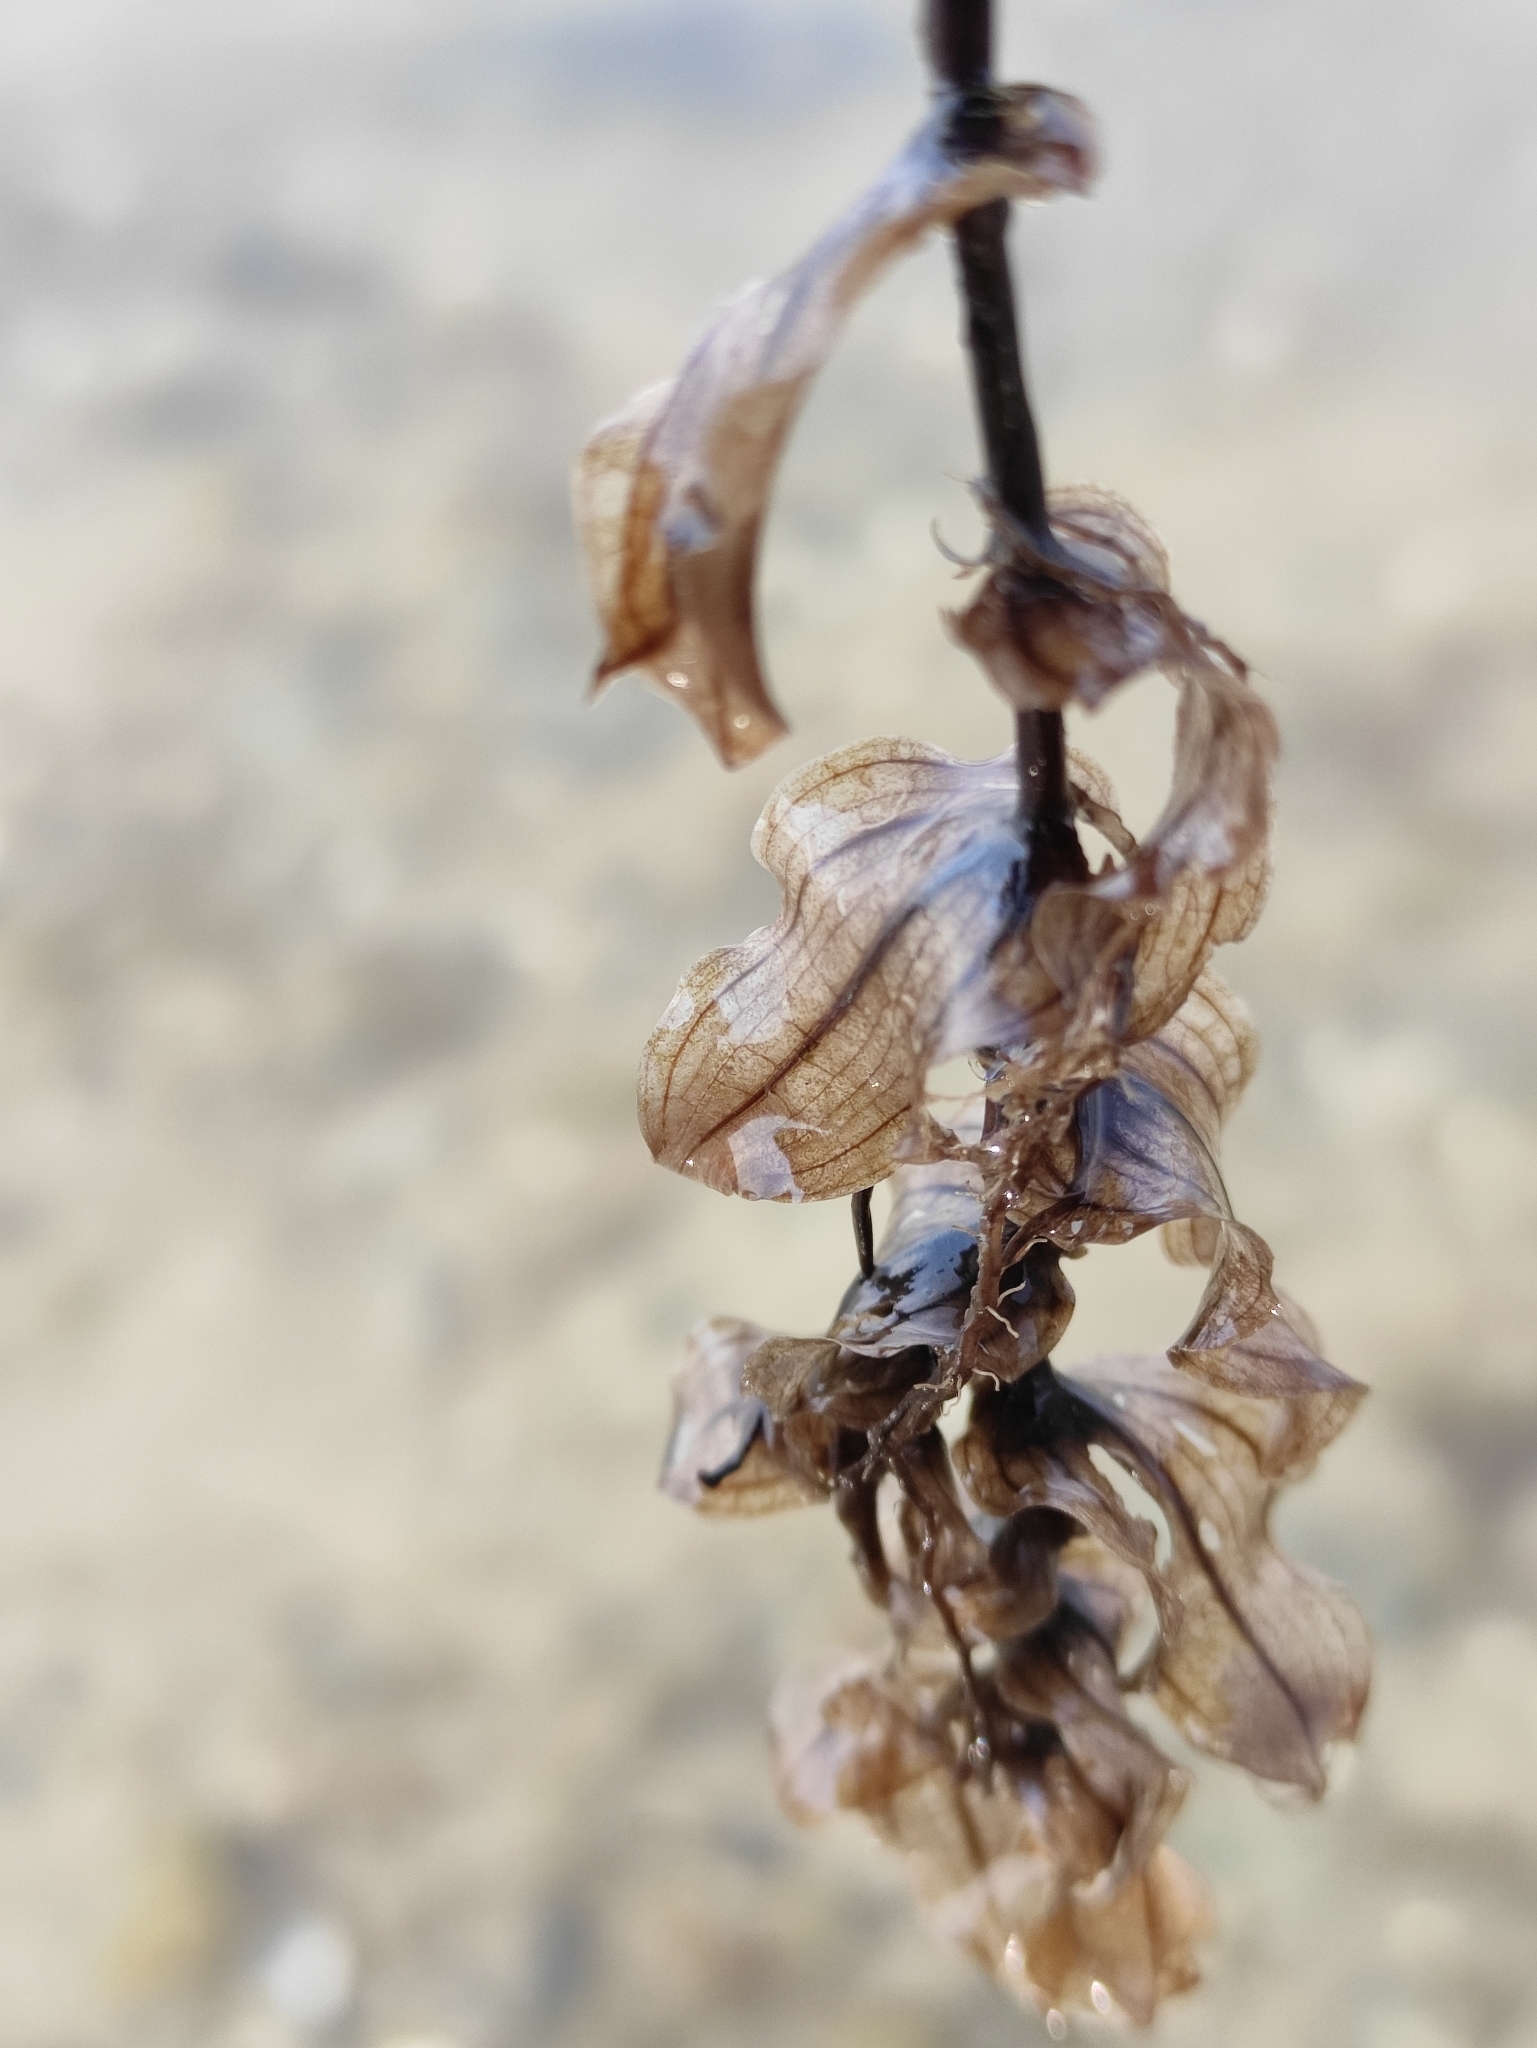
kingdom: Plantae
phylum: Tracheophyta
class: Liliopsida
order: Alismatales
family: Potamogetonaceae
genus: Potamogeton
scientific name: Potamogeton perfoliatus
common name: Perfoliate pondweed
